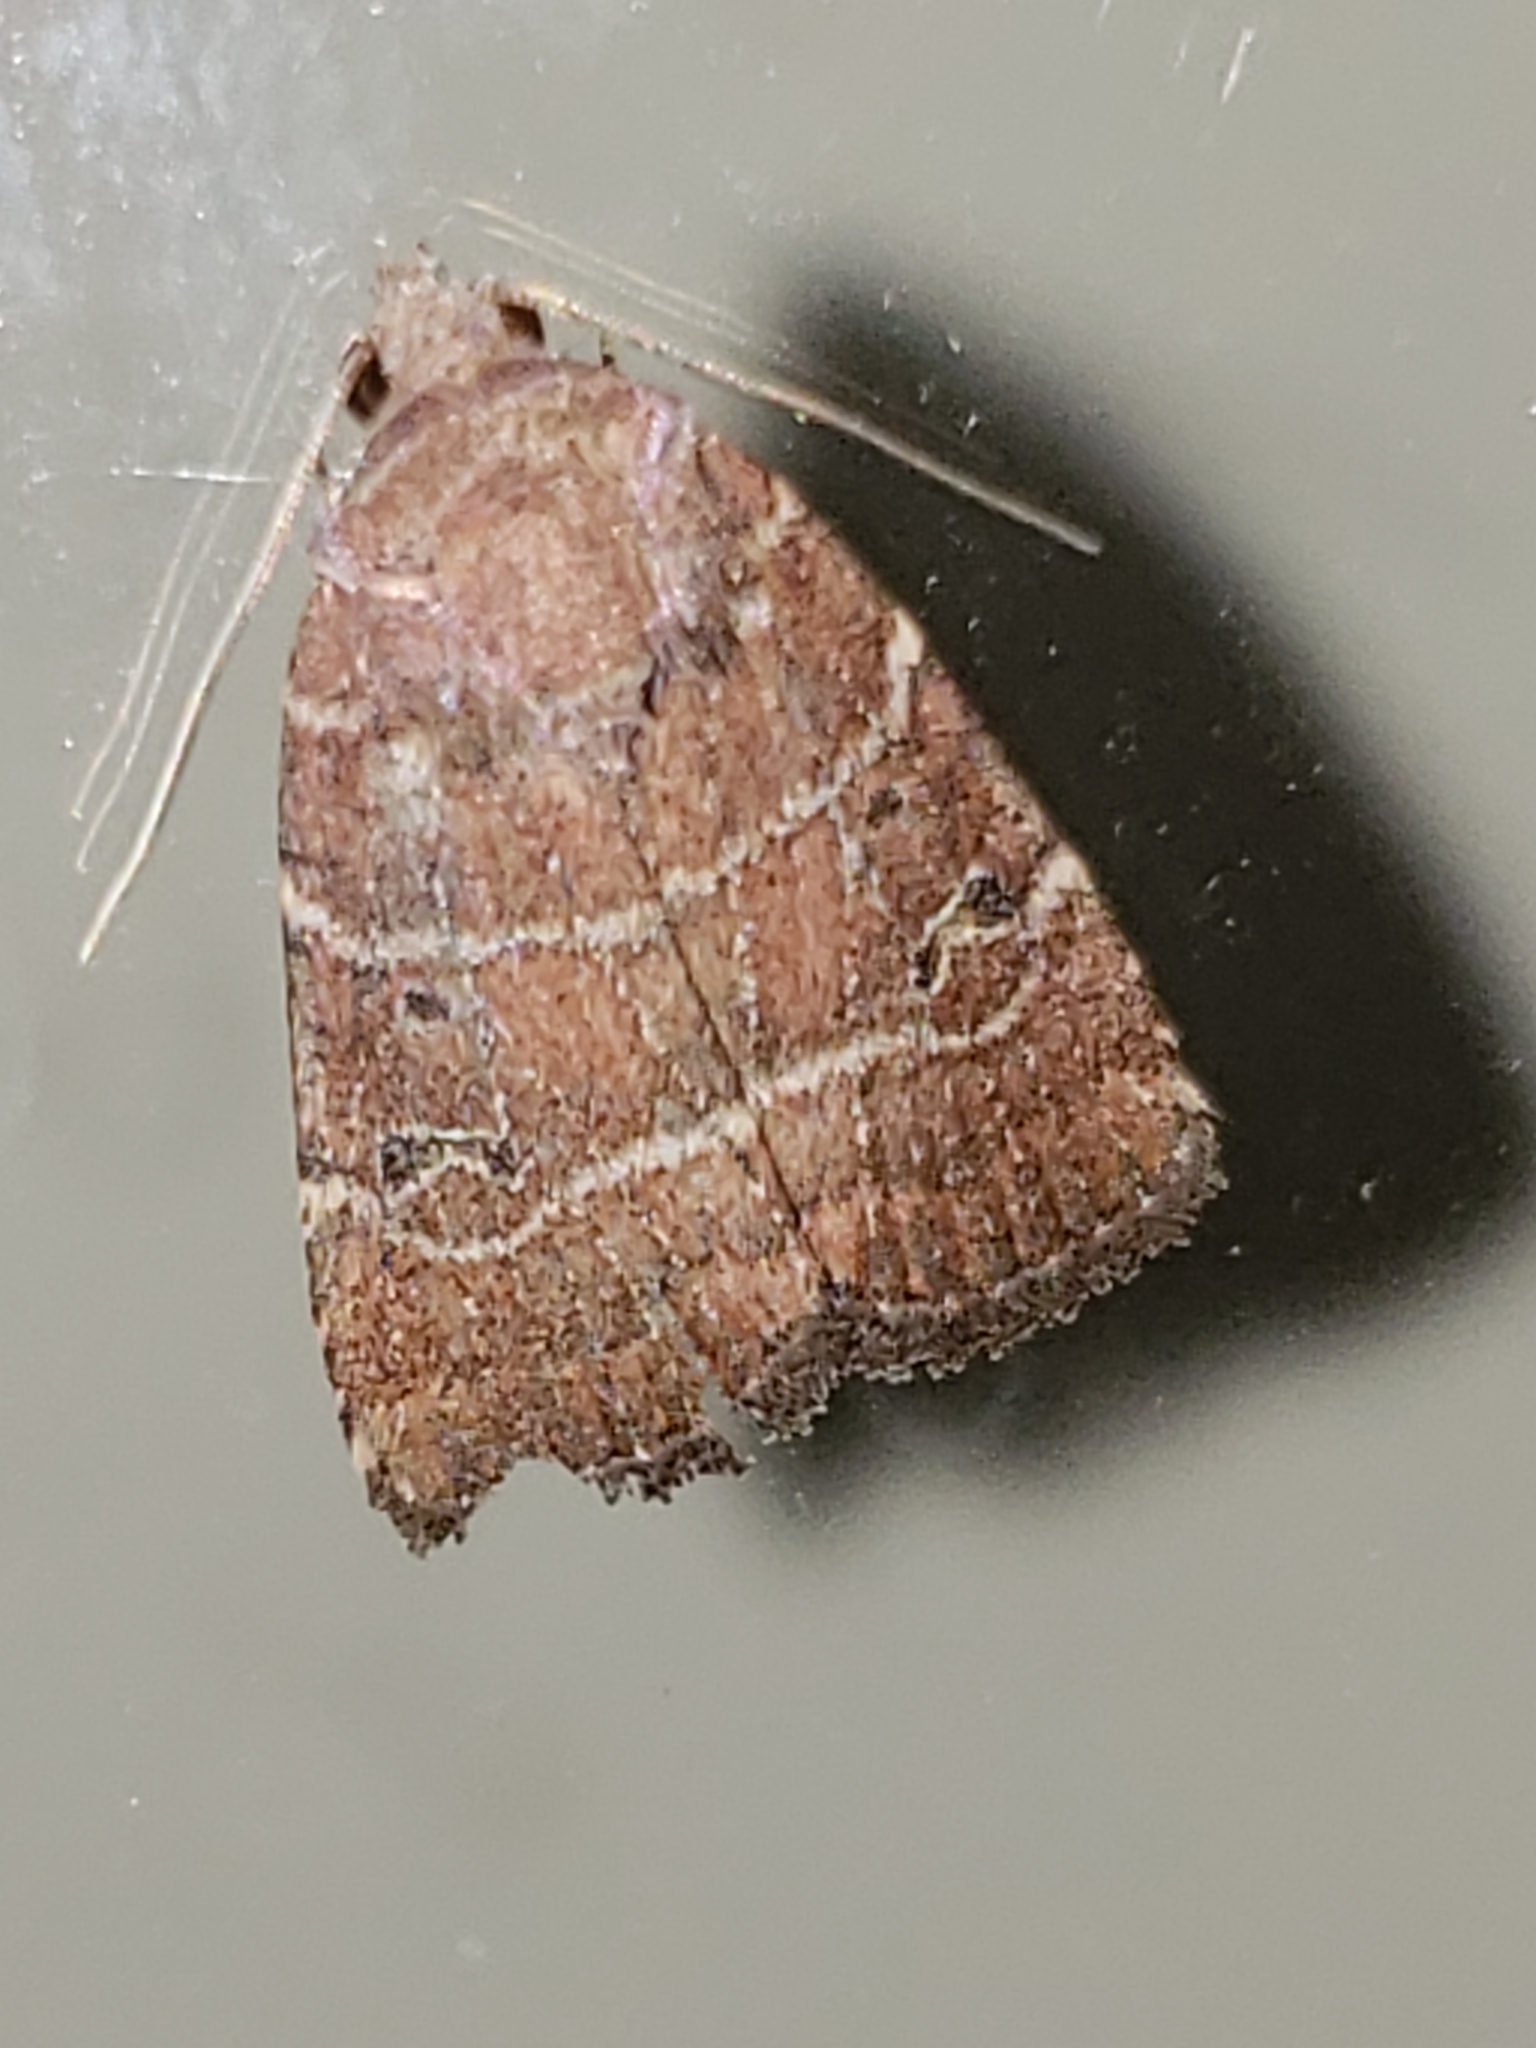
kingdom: Animalia
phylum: Arthropoda
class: Insecta
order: Lepidoptera
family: Noctuidae
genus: Elaphria
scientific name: Elaphria grata
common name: Grateful midget moth
